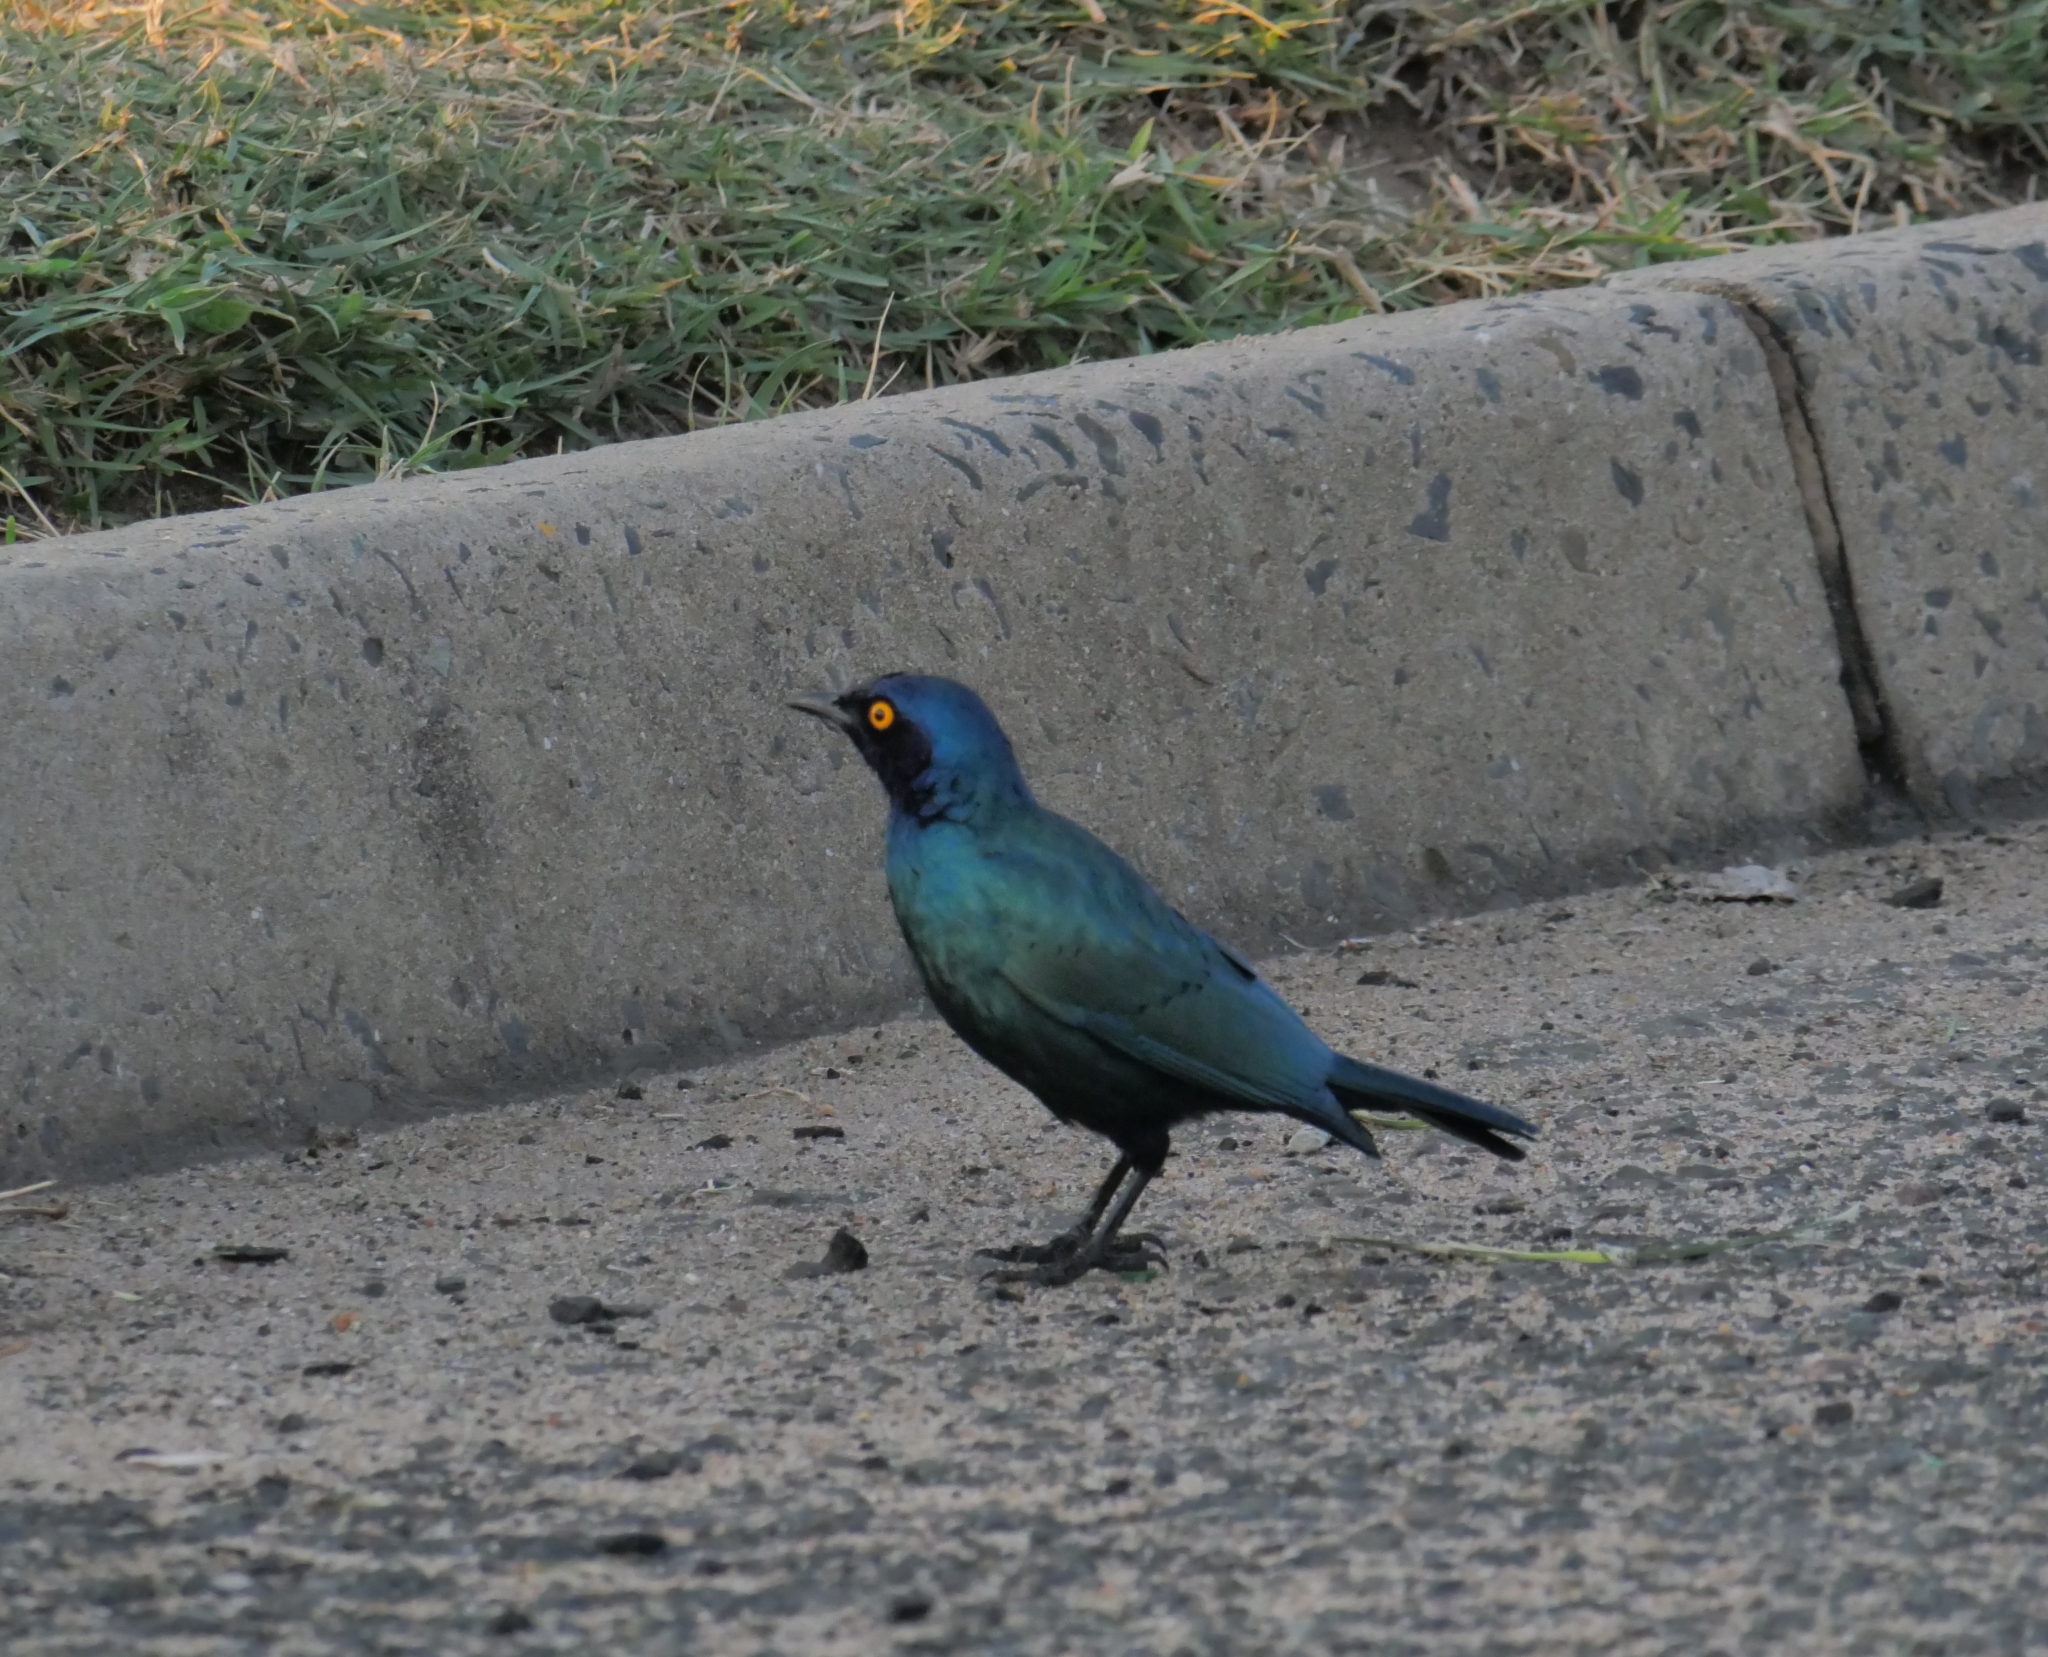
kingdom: Animalia
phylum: Chordata
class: Aves
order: Passeriformes
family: Sturnidae
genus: Lamprotornis
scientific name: Lamprotornis nitens
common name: Cape starling
